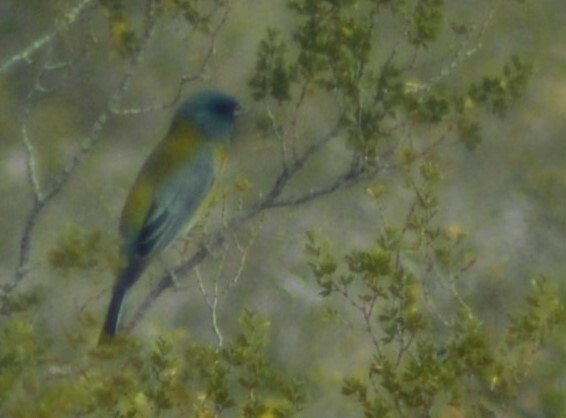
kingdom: Animalia
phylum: Chordata
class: Aves
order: Passeriformes
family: Thraupidae
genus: Phrygilus
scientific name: Phrygilus gayi
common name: Grey-hooded sierra finch
